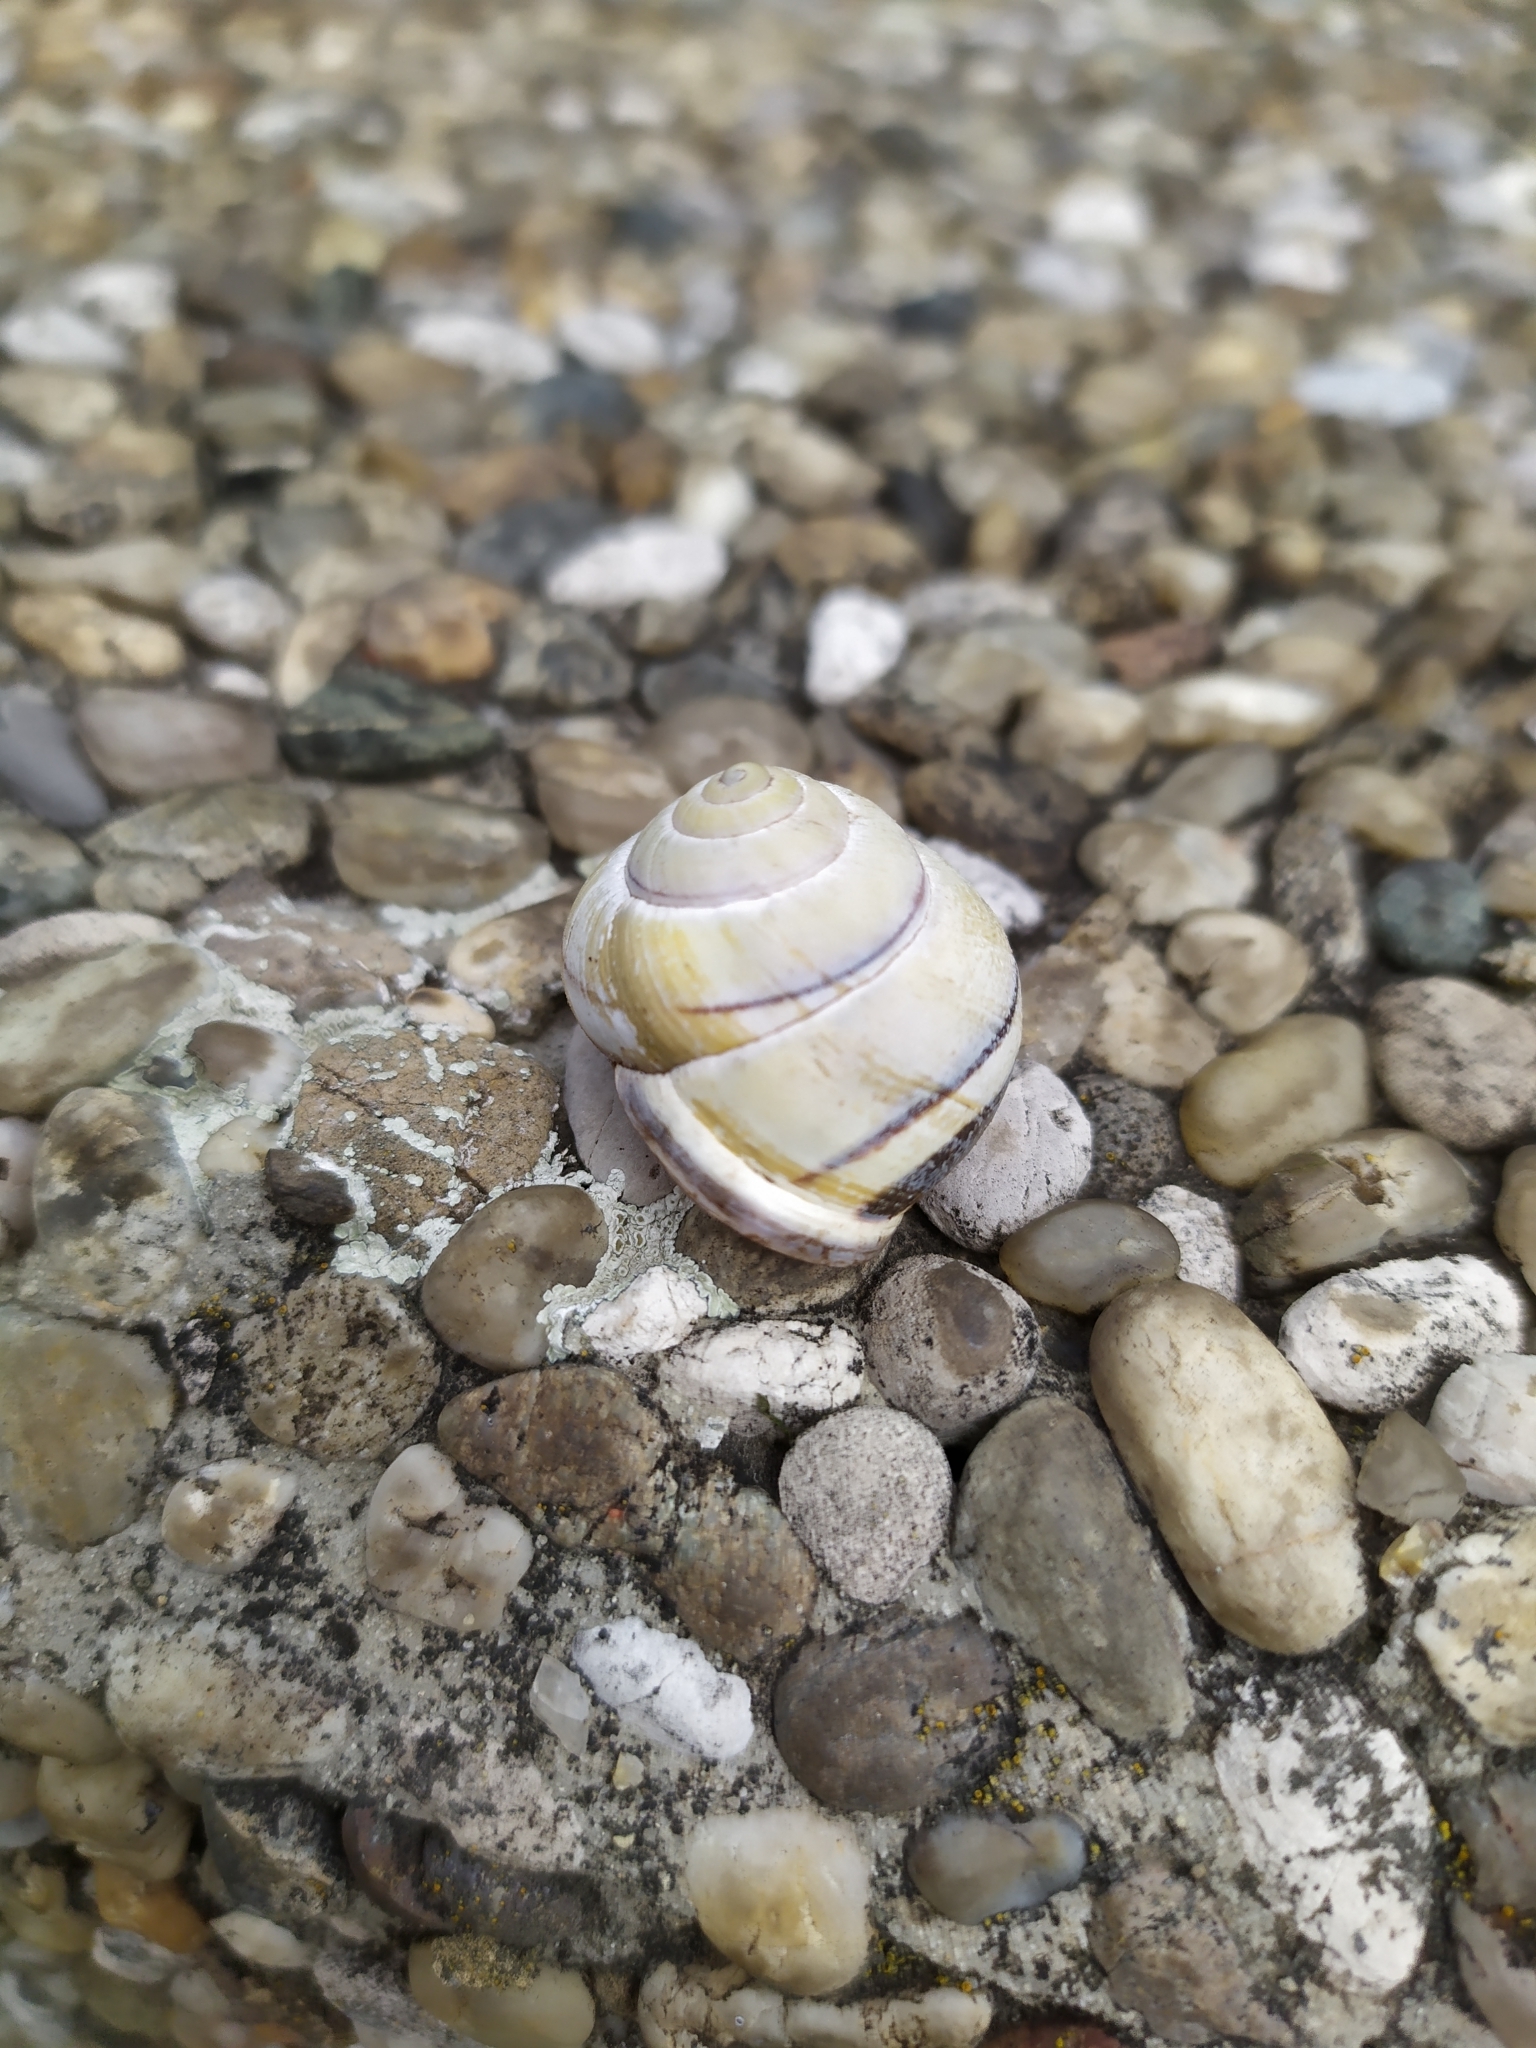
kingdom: Animalia
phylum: Mollusca
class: Gastropoda
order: Stylommatophora
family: Helicidae
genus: Cepaea
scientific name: Cepaea nemoralis
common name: Grovesnail
